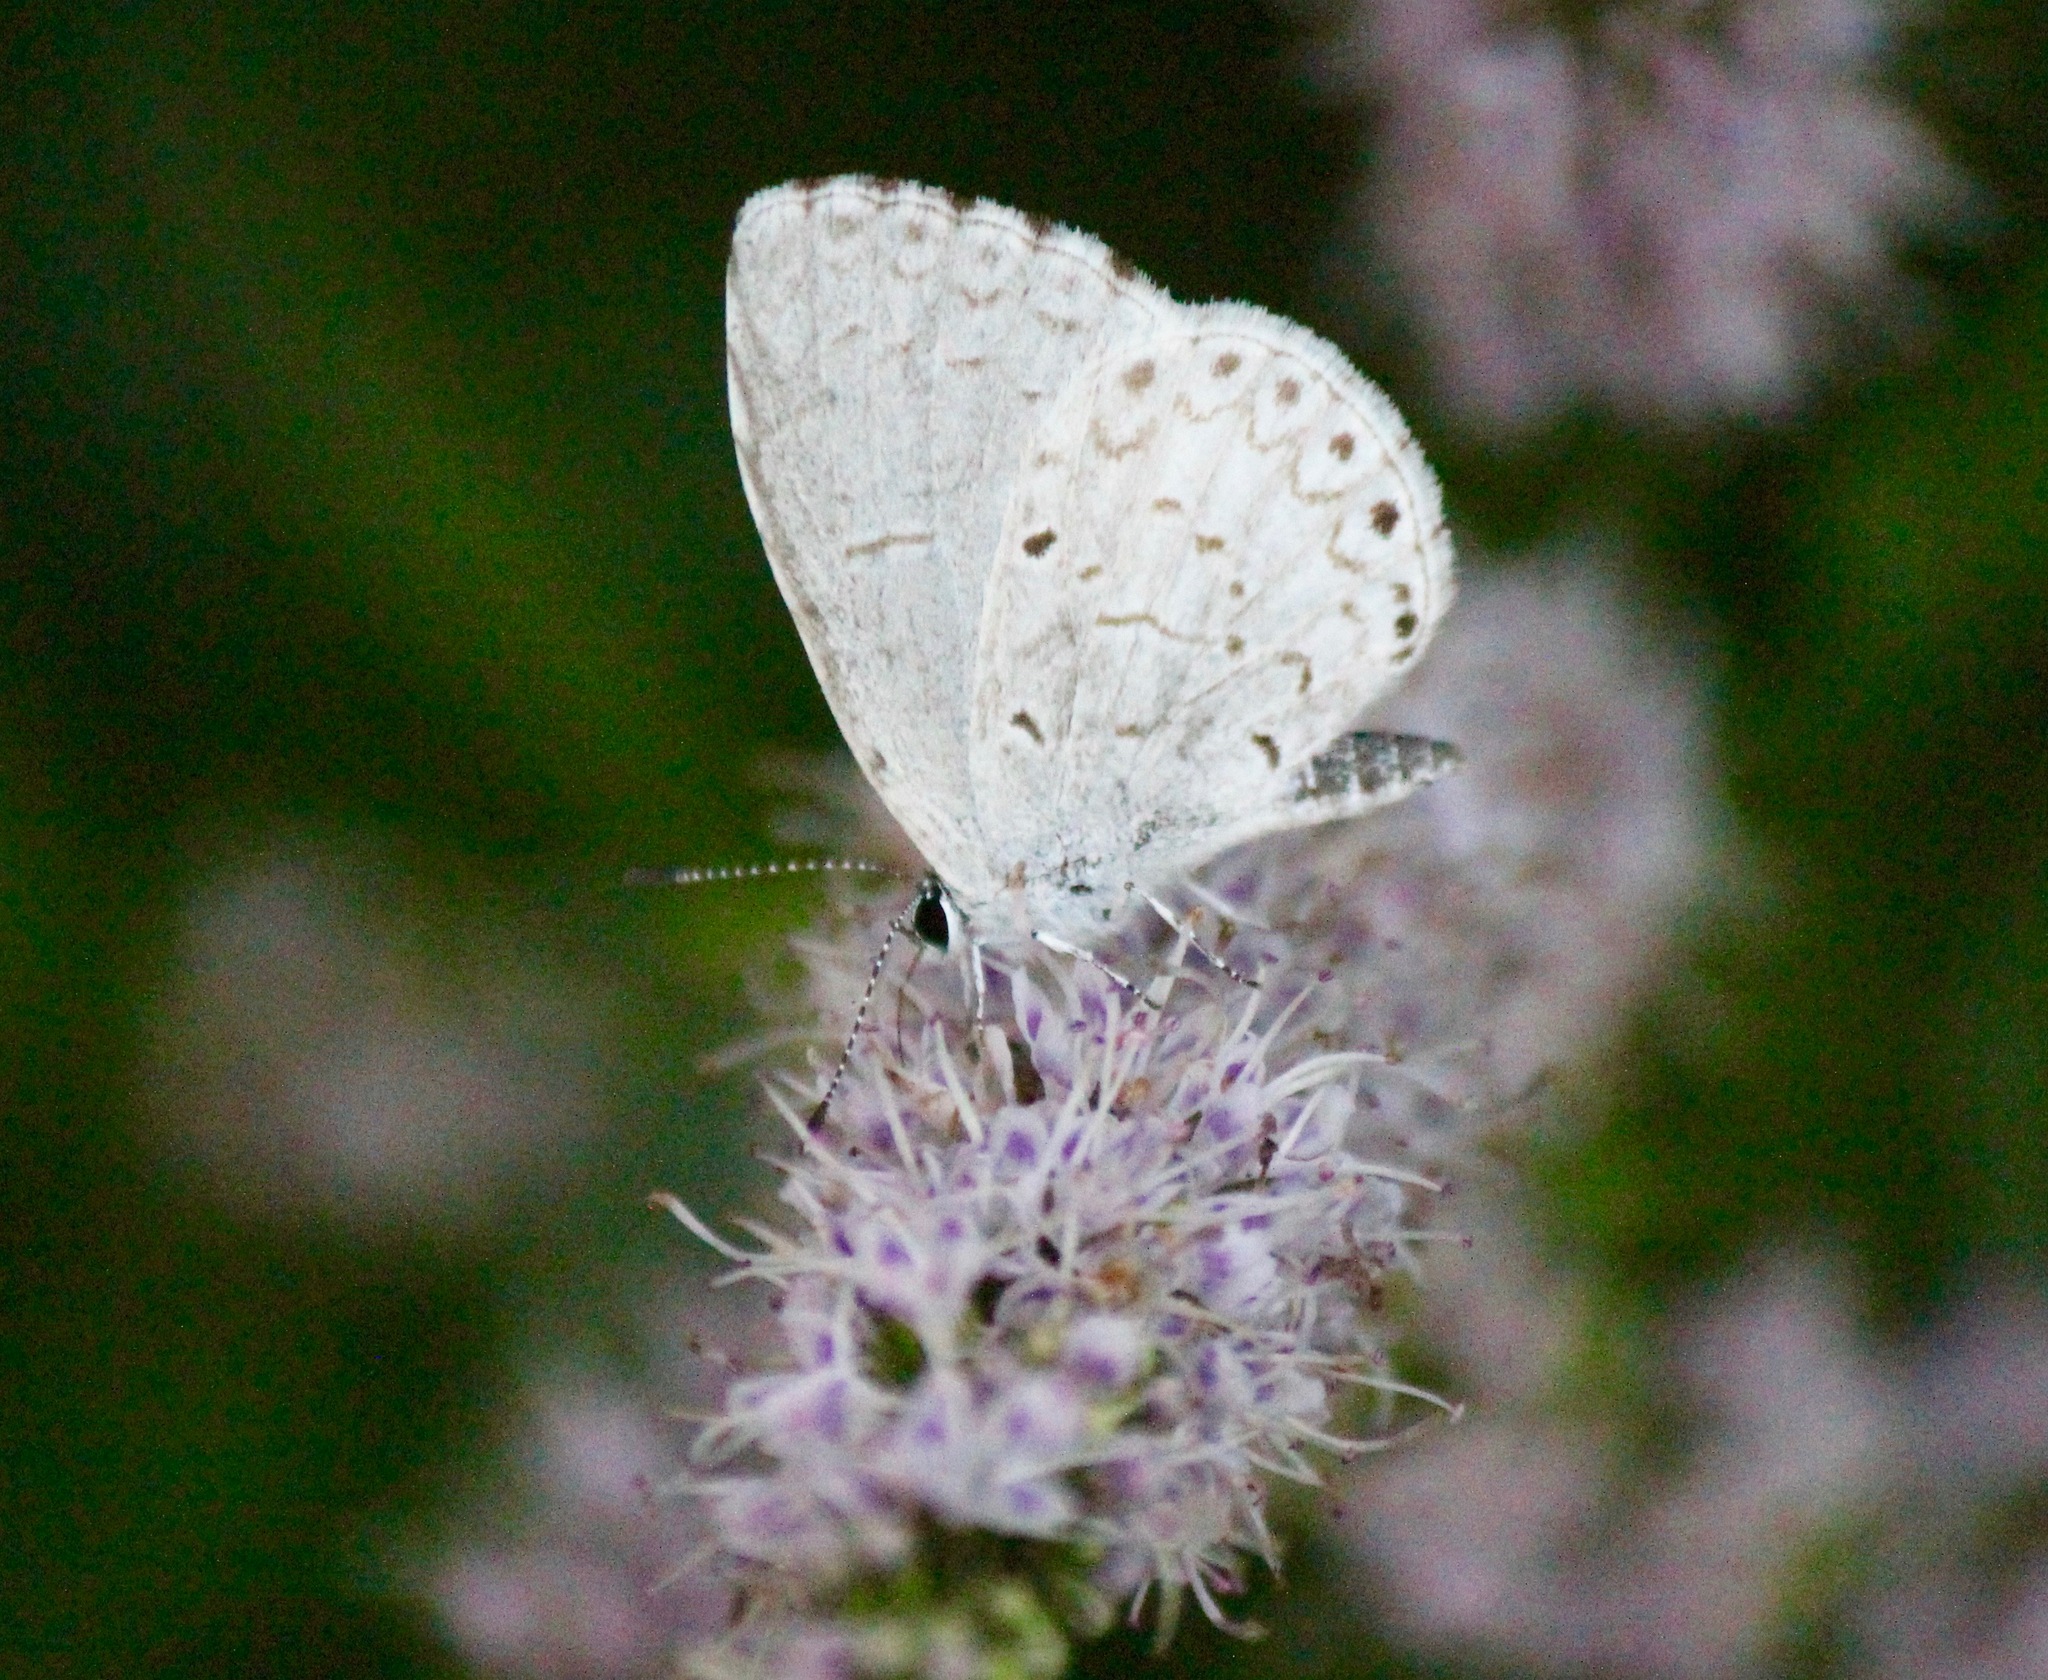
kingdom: Animalia
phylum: Arthropoda
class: Insecta
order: Lepidoptera
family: Lycaenidae
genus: Celastrina
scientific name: Celastrina lucia
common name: Lucia azure
